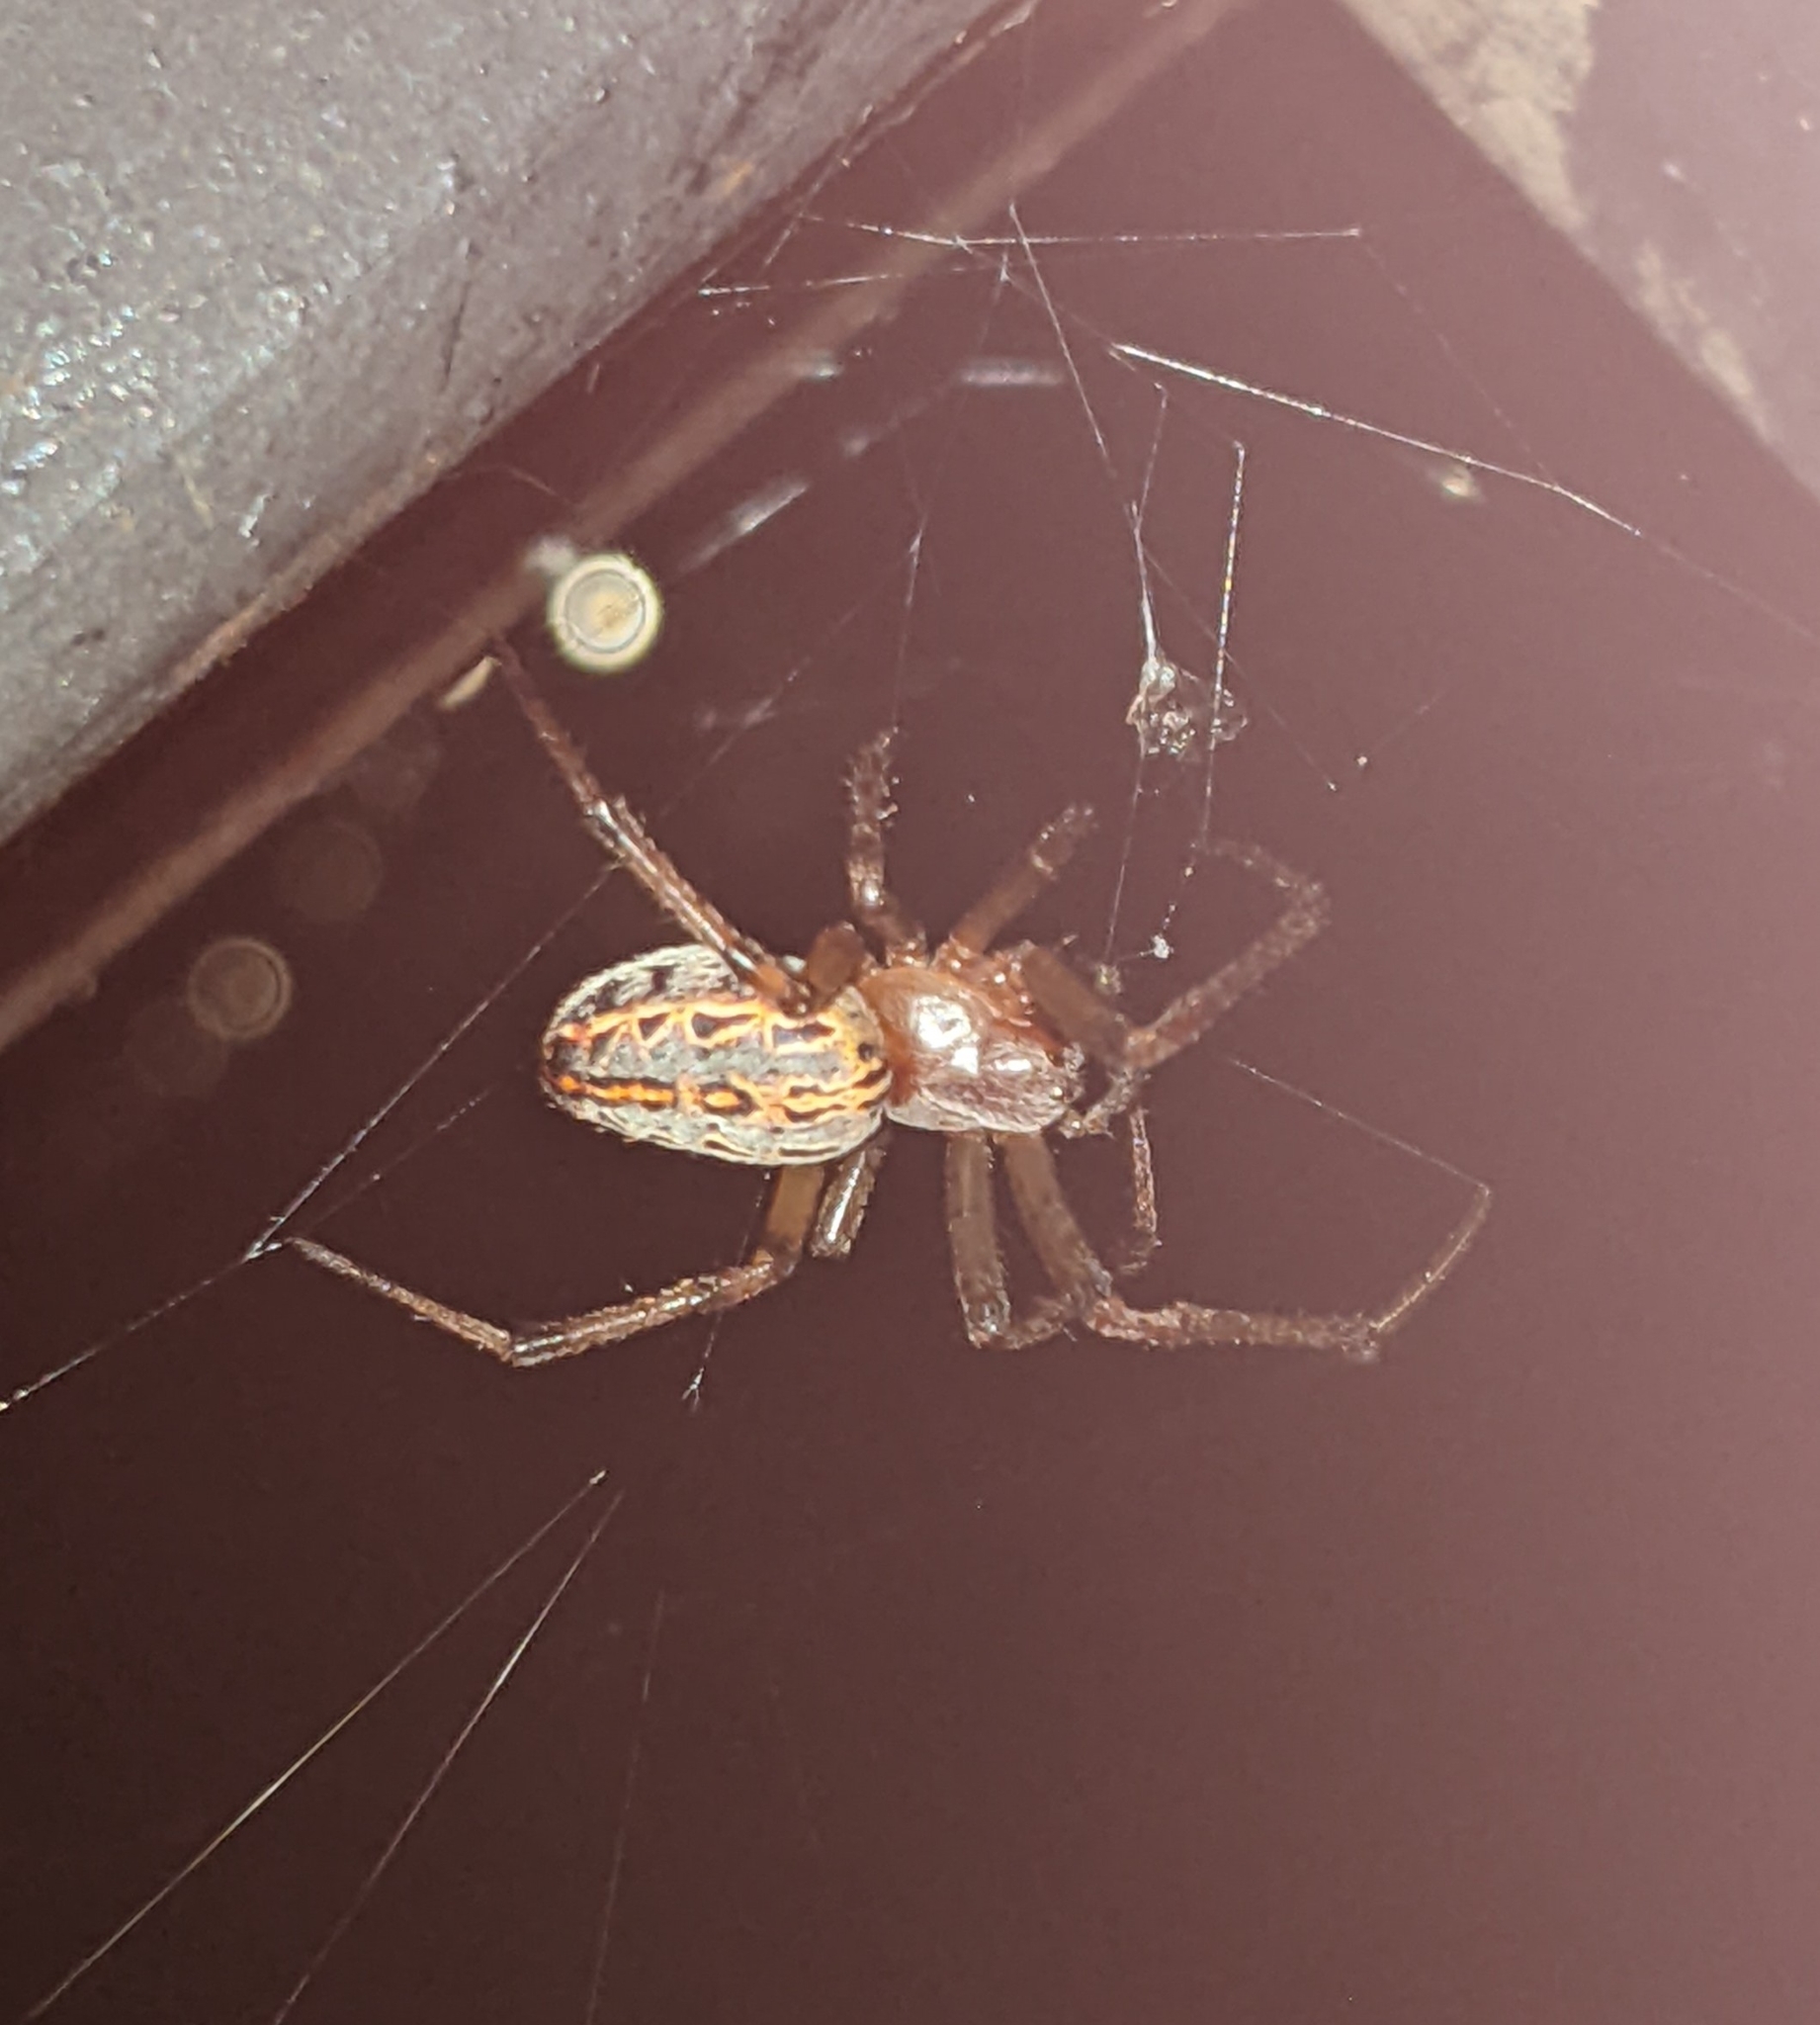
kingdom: Animalia
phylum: Arthropoda
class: Arachnida
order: Araneae
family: Araneidae
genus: Alpaida
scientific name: Alpaida veniliae
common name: Orb weavers
